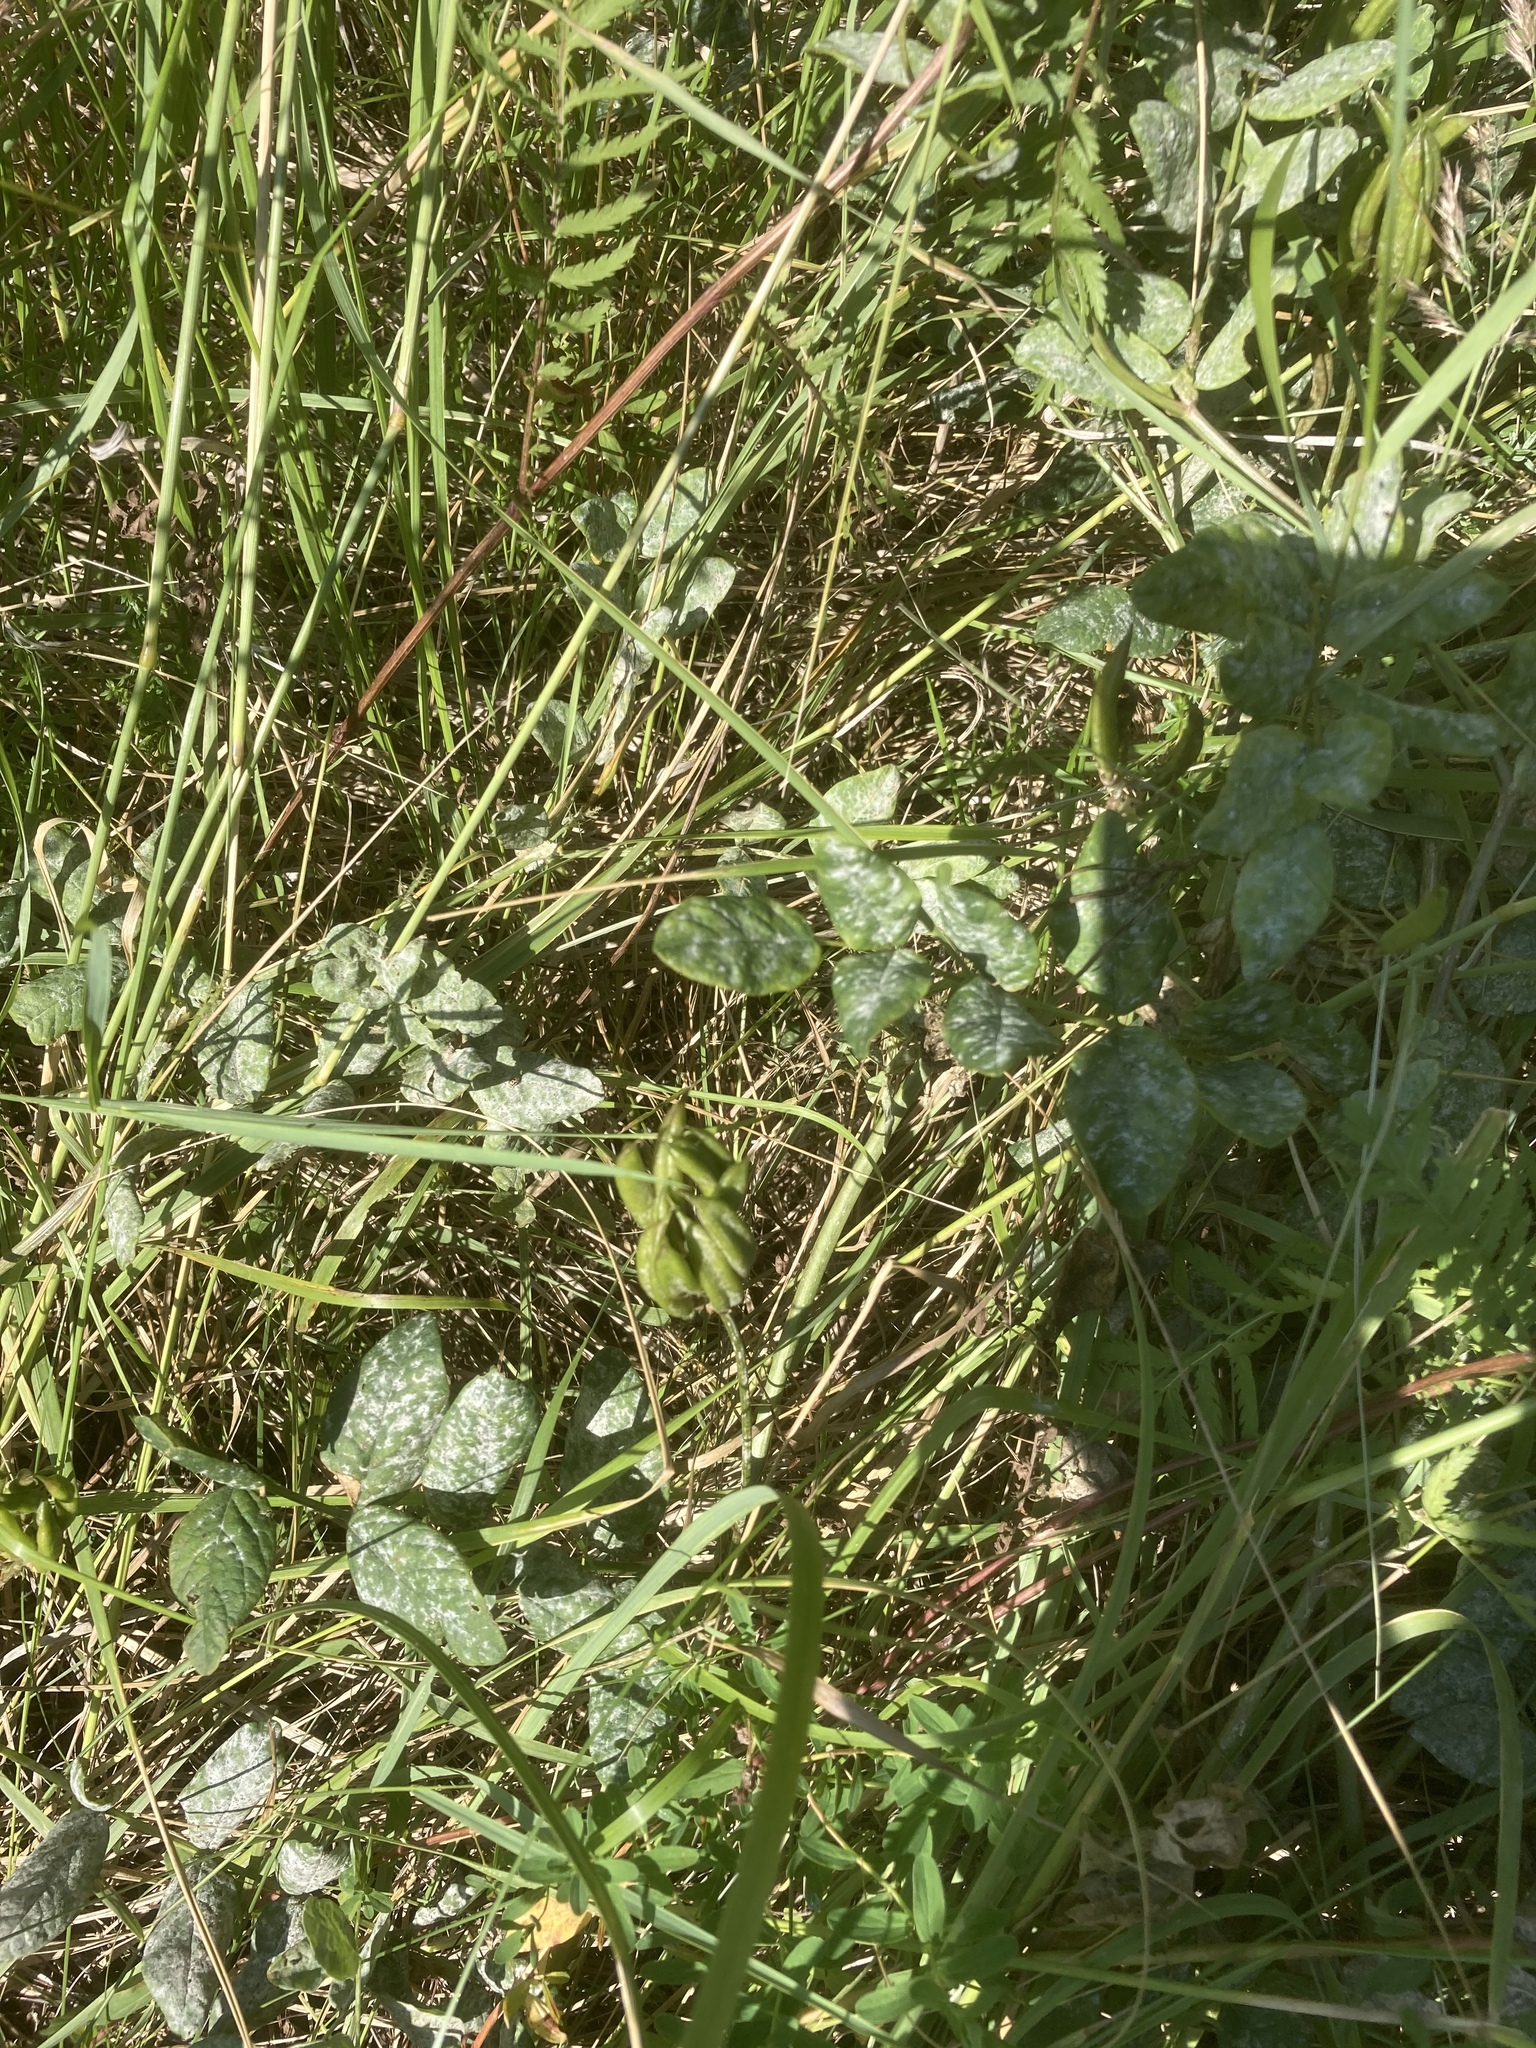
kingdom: Plantae
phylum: Tracheophyta
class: Magnoliopsida
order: Fabales
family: Fabaceae
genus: Astragalus
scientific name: Astragalus glycyphyllos
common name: Wild liquorice
